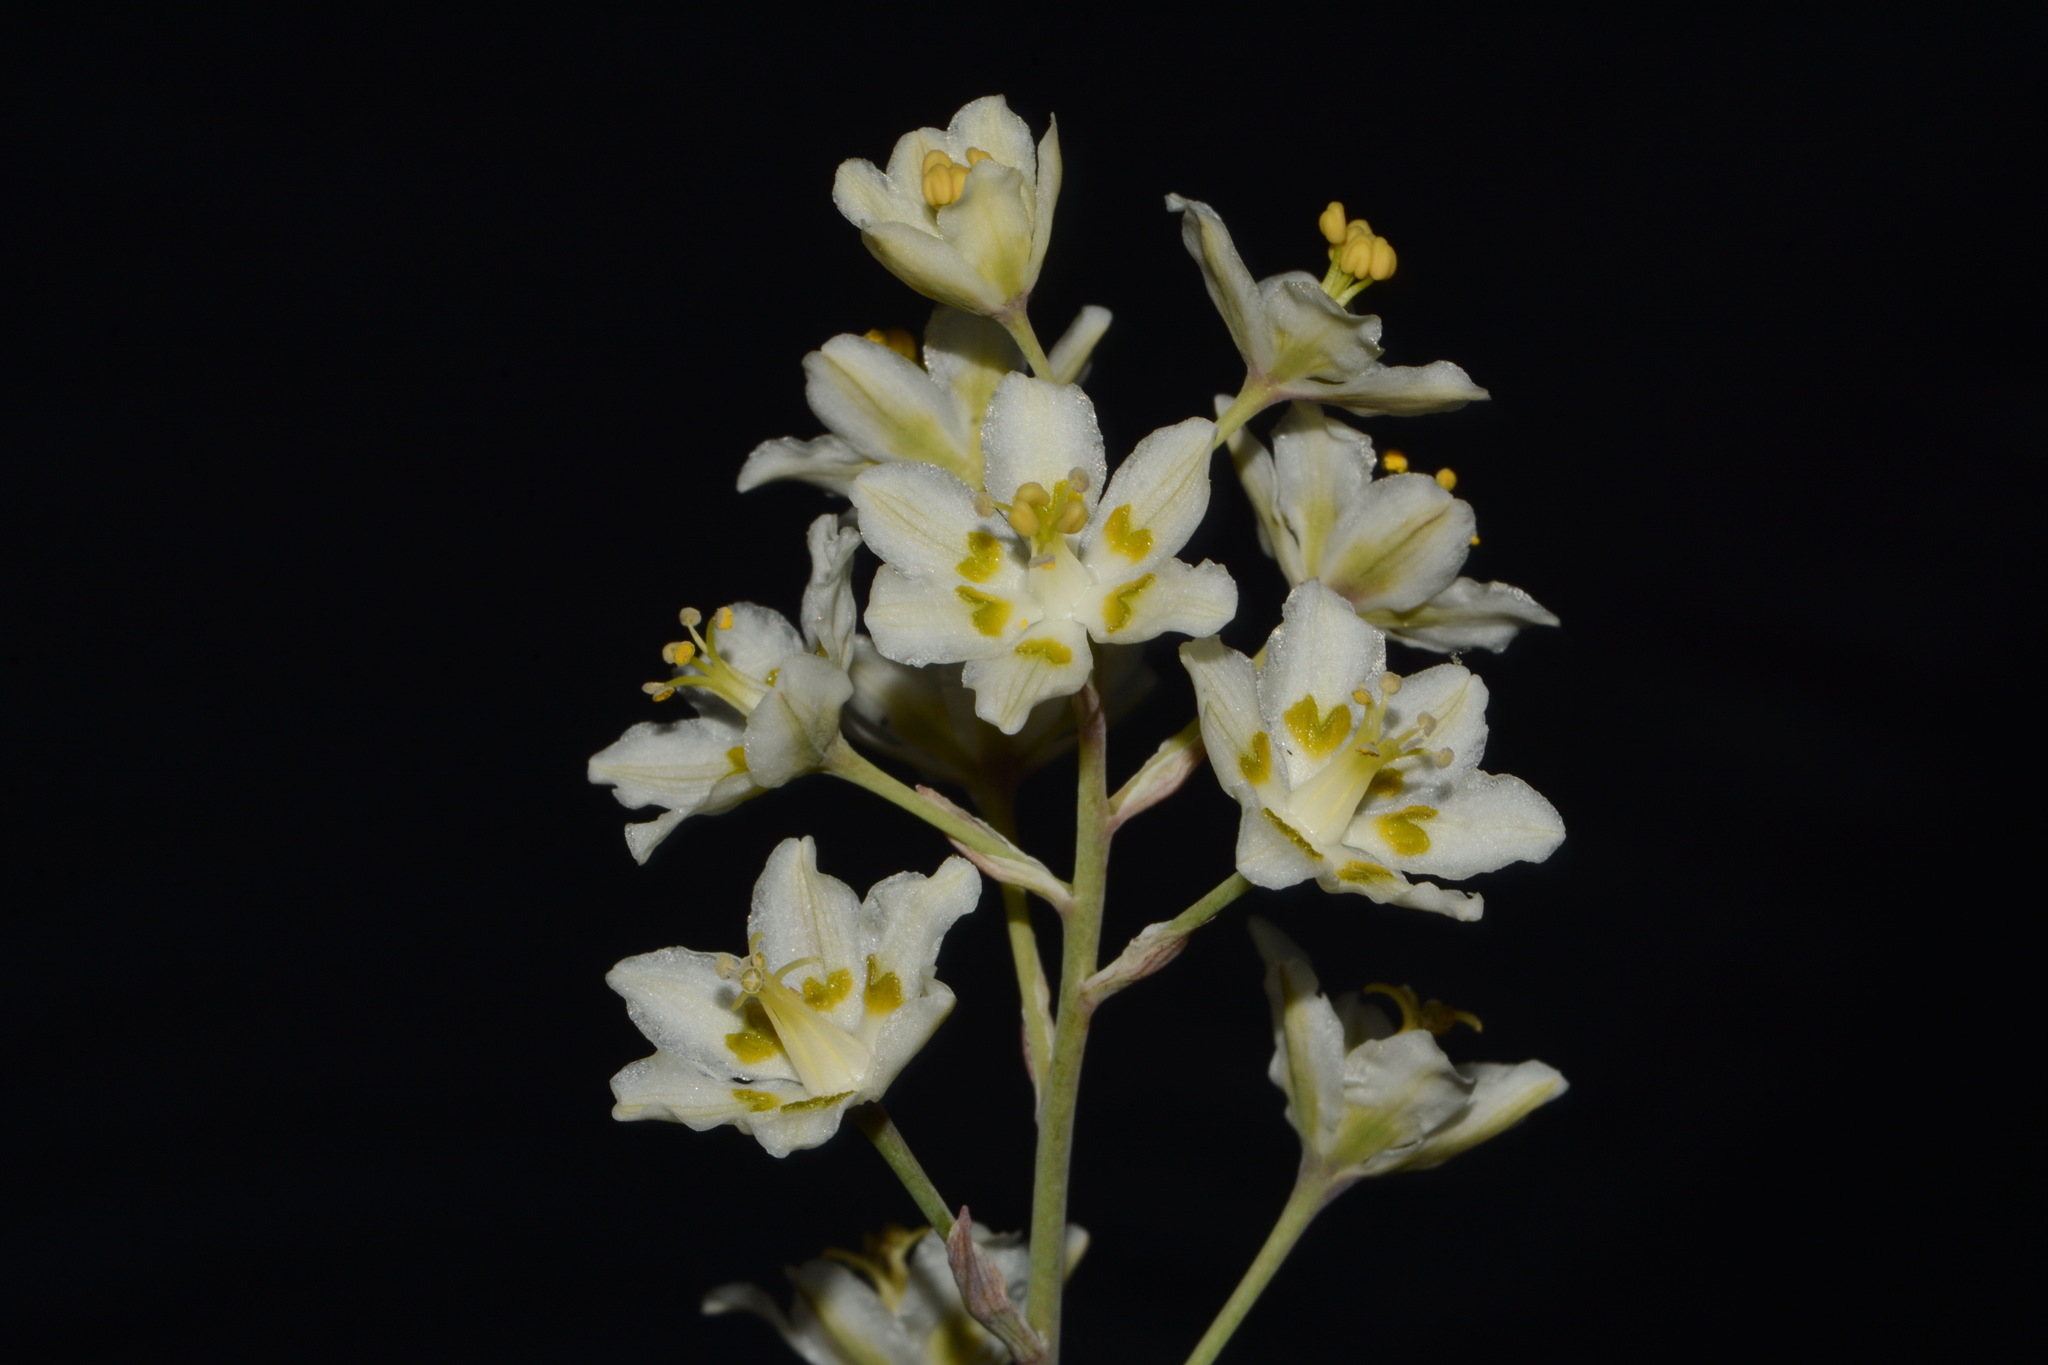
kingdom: Plantae
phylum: Tracheophyta
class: Liliopsida
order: Liliales
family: Melanthiaceae
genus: Anticlea
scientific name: Anticlea elegans
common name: Mountain death camas
